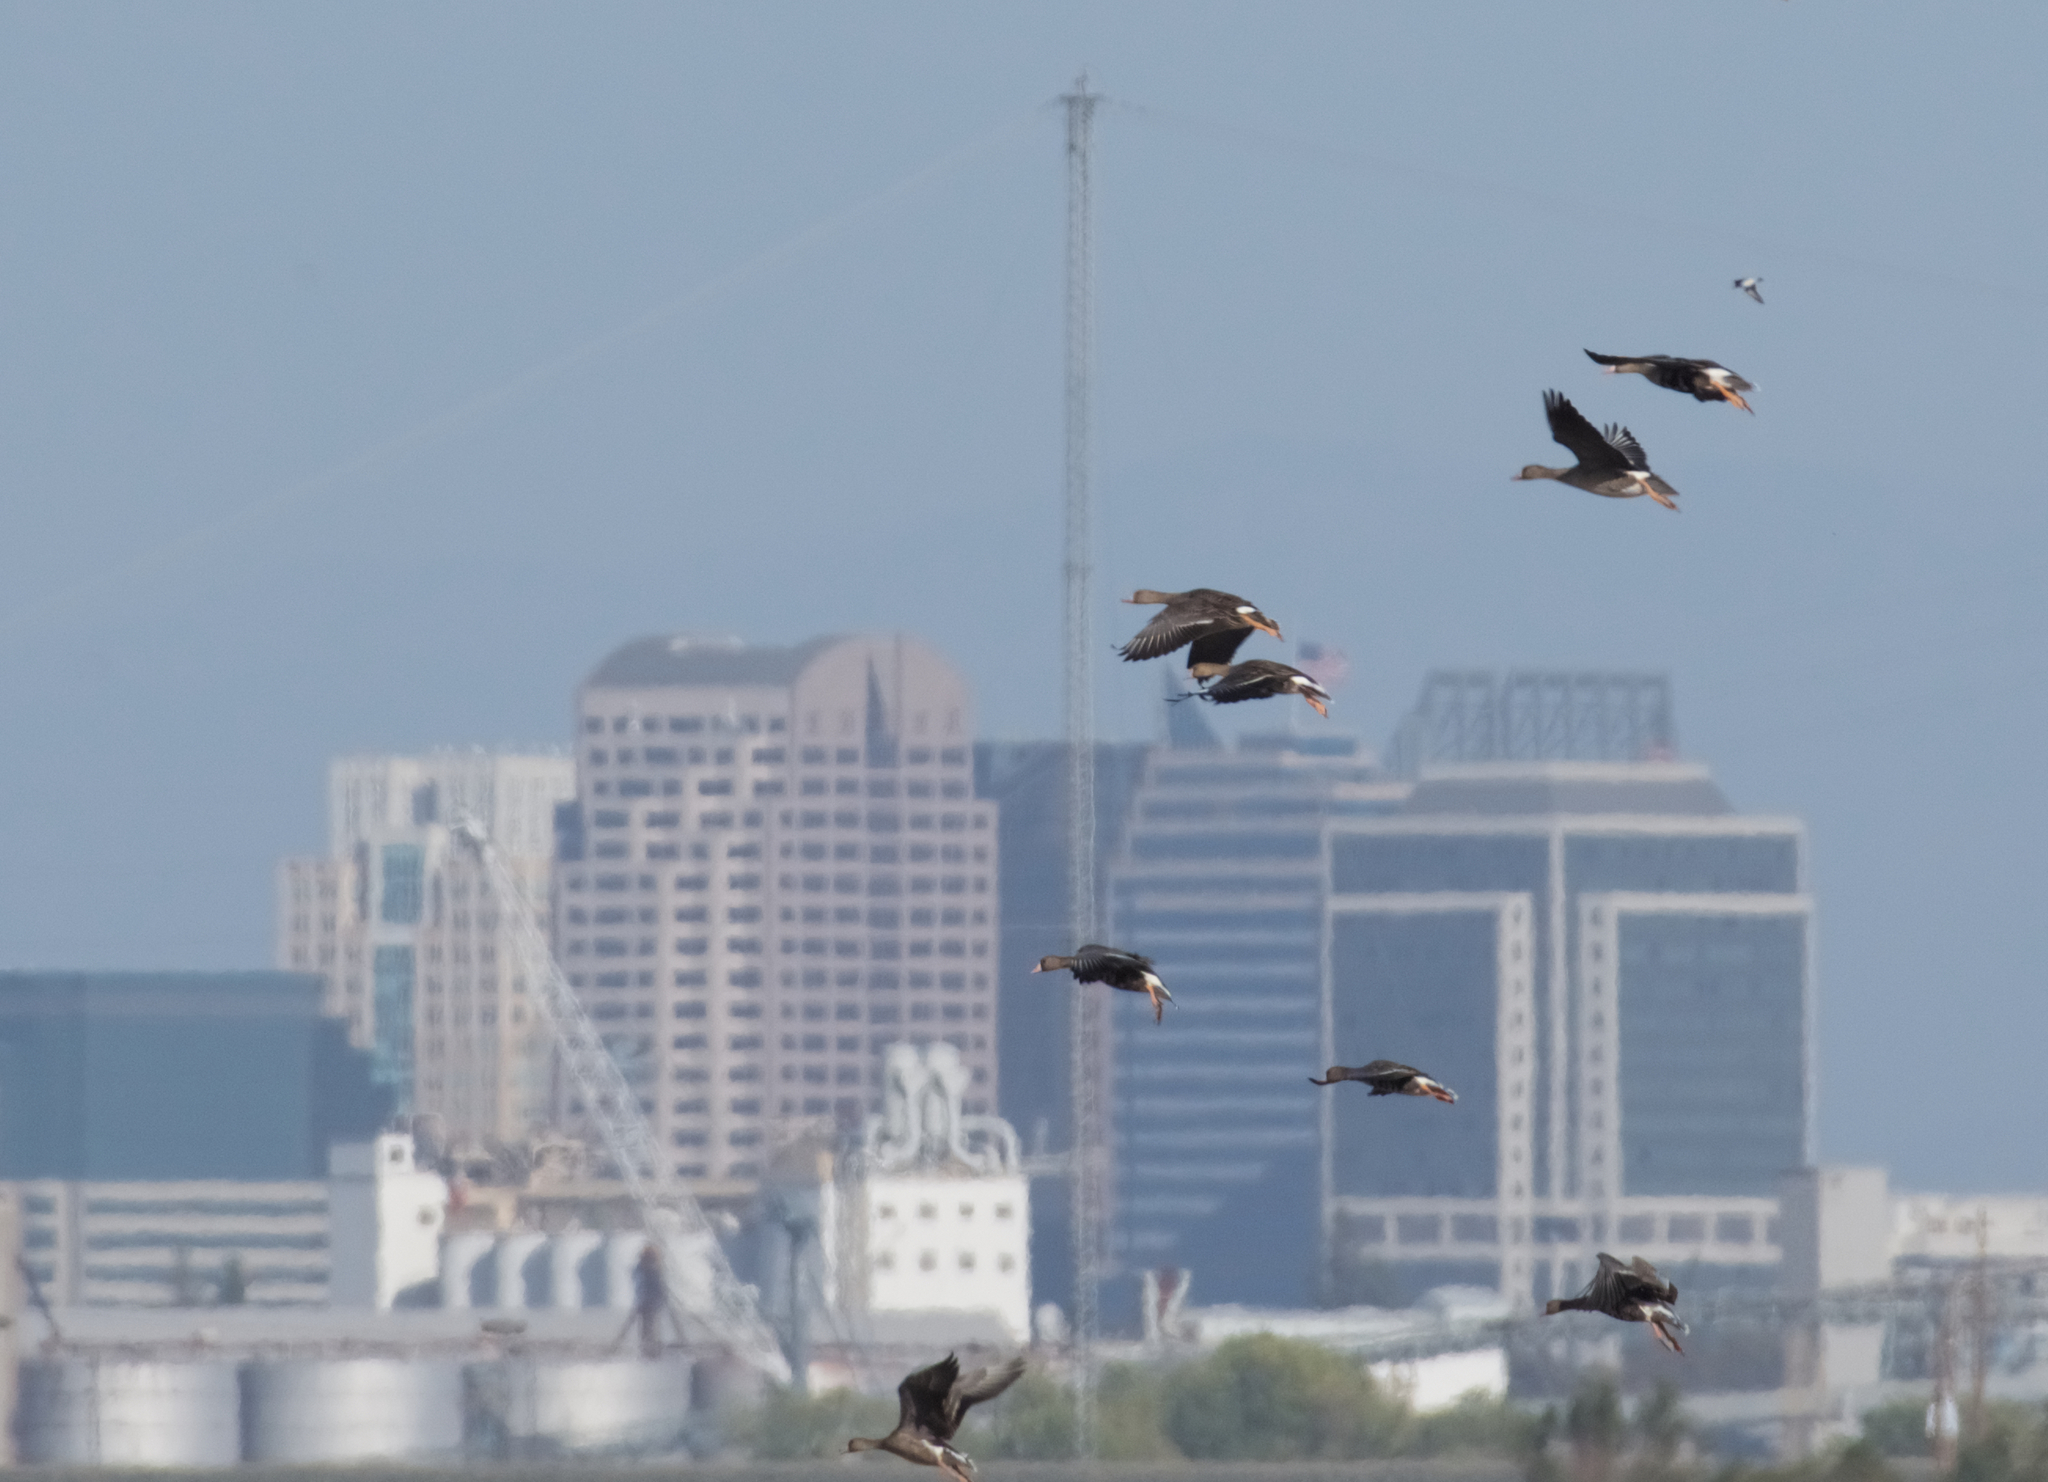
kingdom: Animalia
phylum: Chordata
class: Aves
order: Anseriformes
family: Anatidae
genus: Anser
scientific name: Anser albifrons
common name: Greater white-fronted goose
